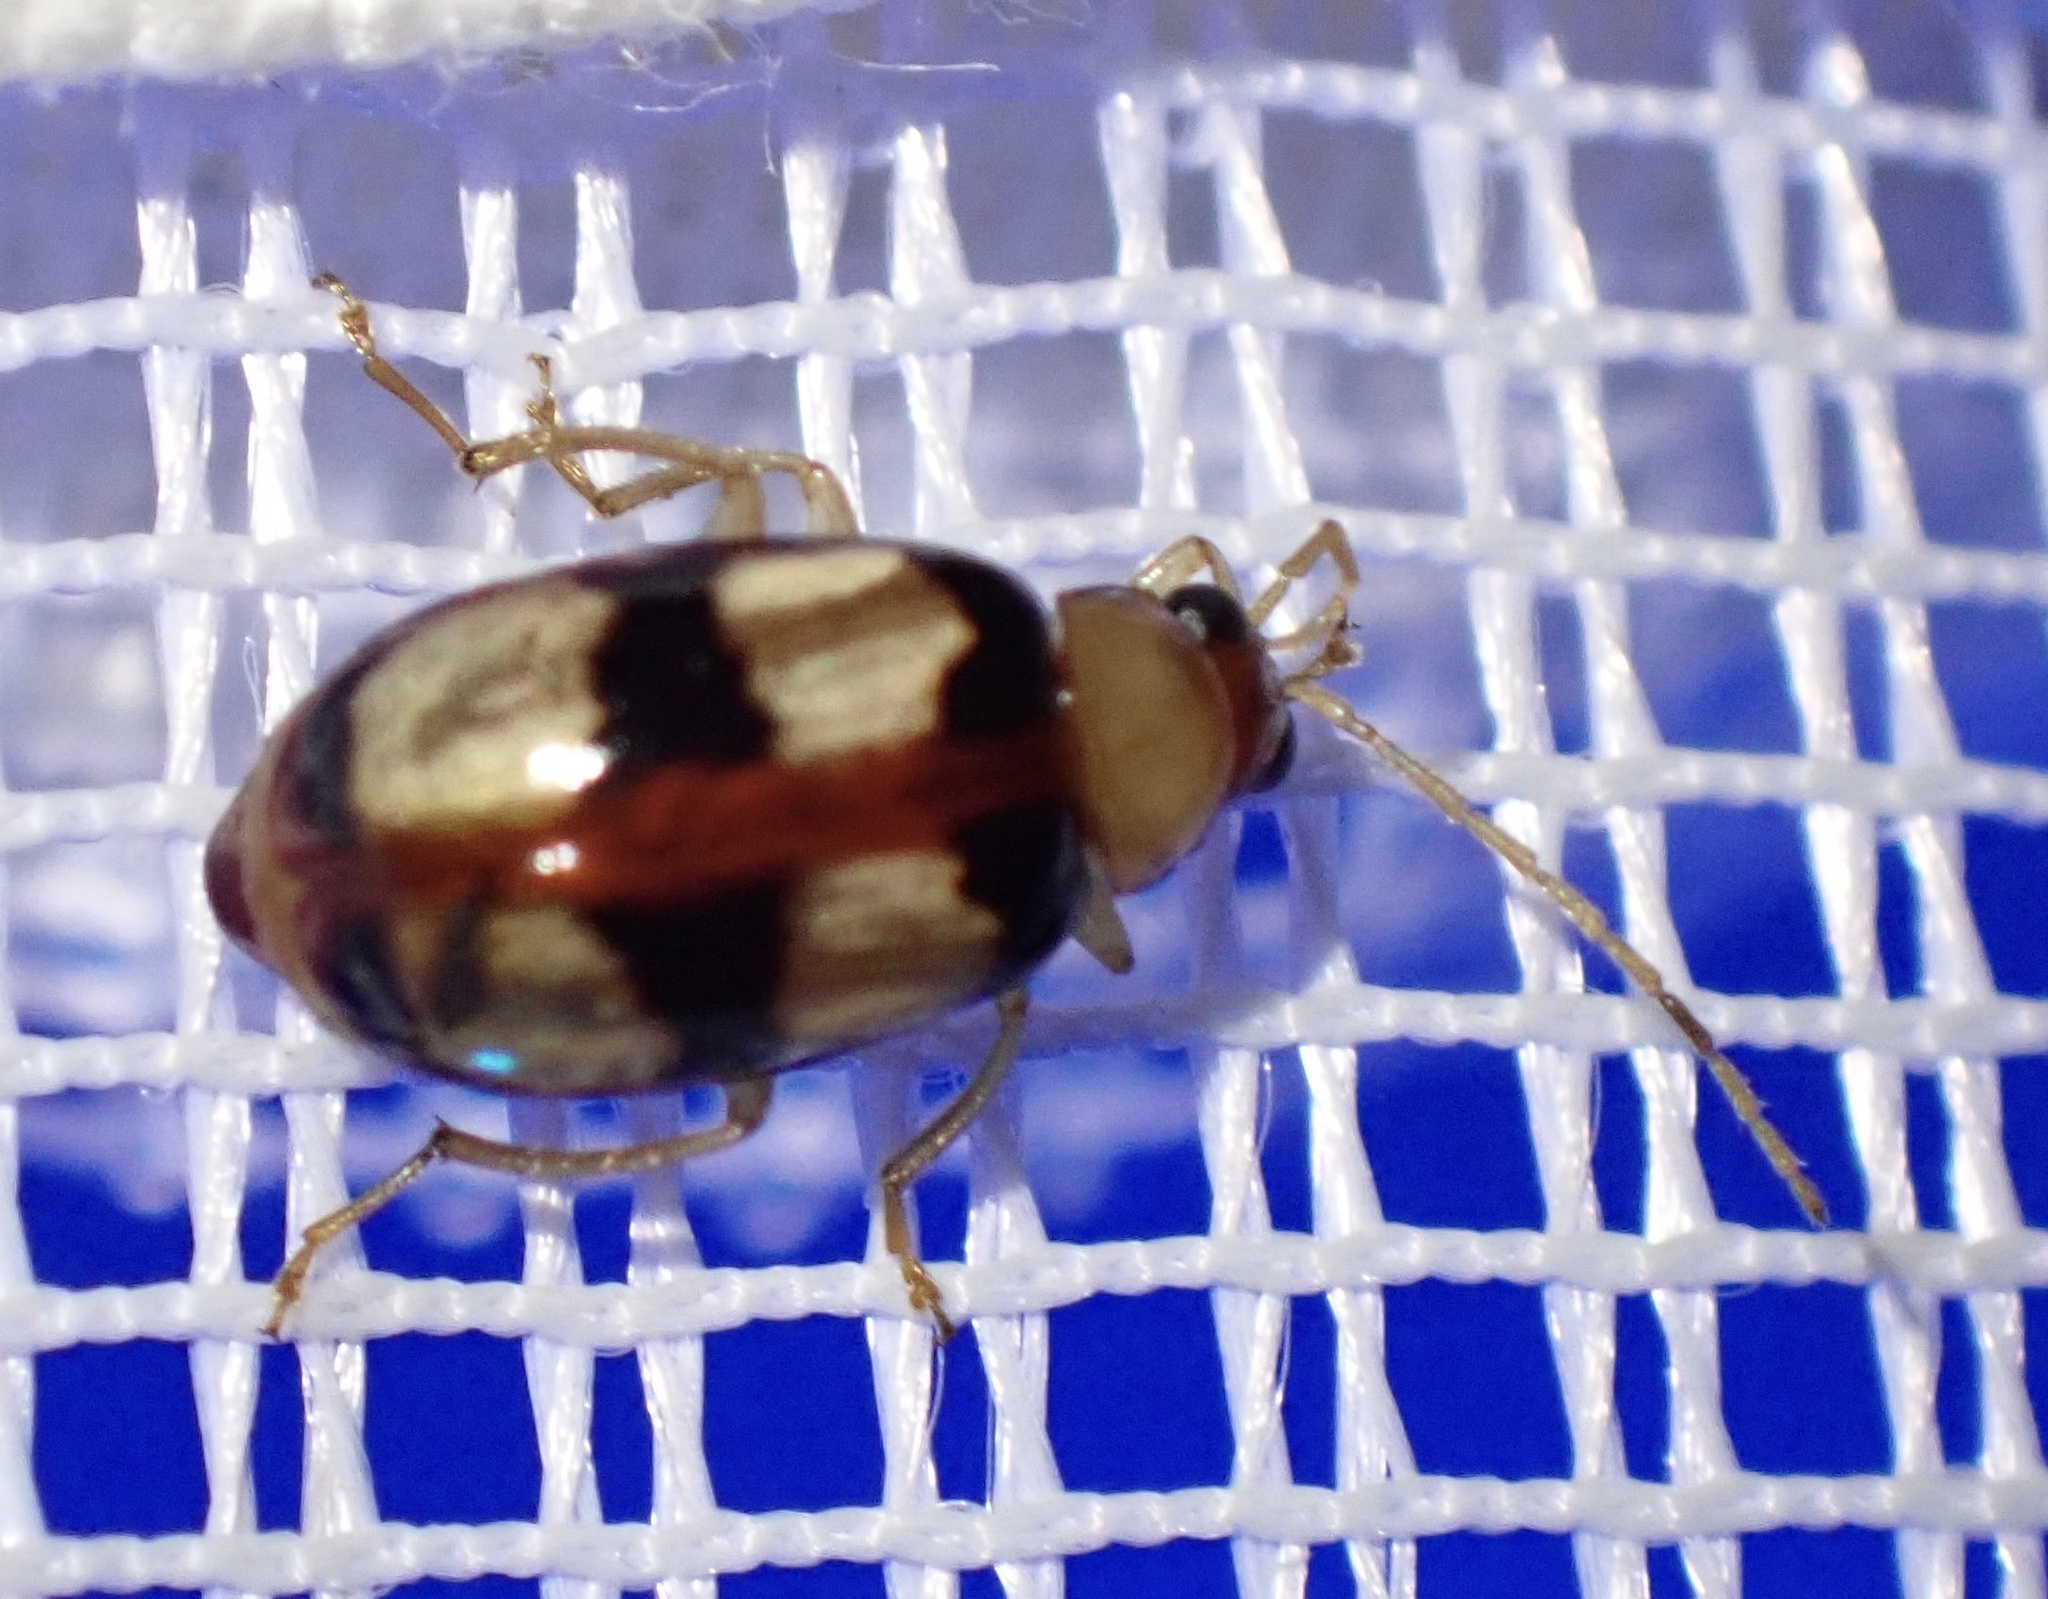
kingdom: Animalia
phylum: Arthropoda
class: Insecta
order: Coleoptera
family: Chrysomelidae
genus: Monolepta
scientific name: Monolepta
